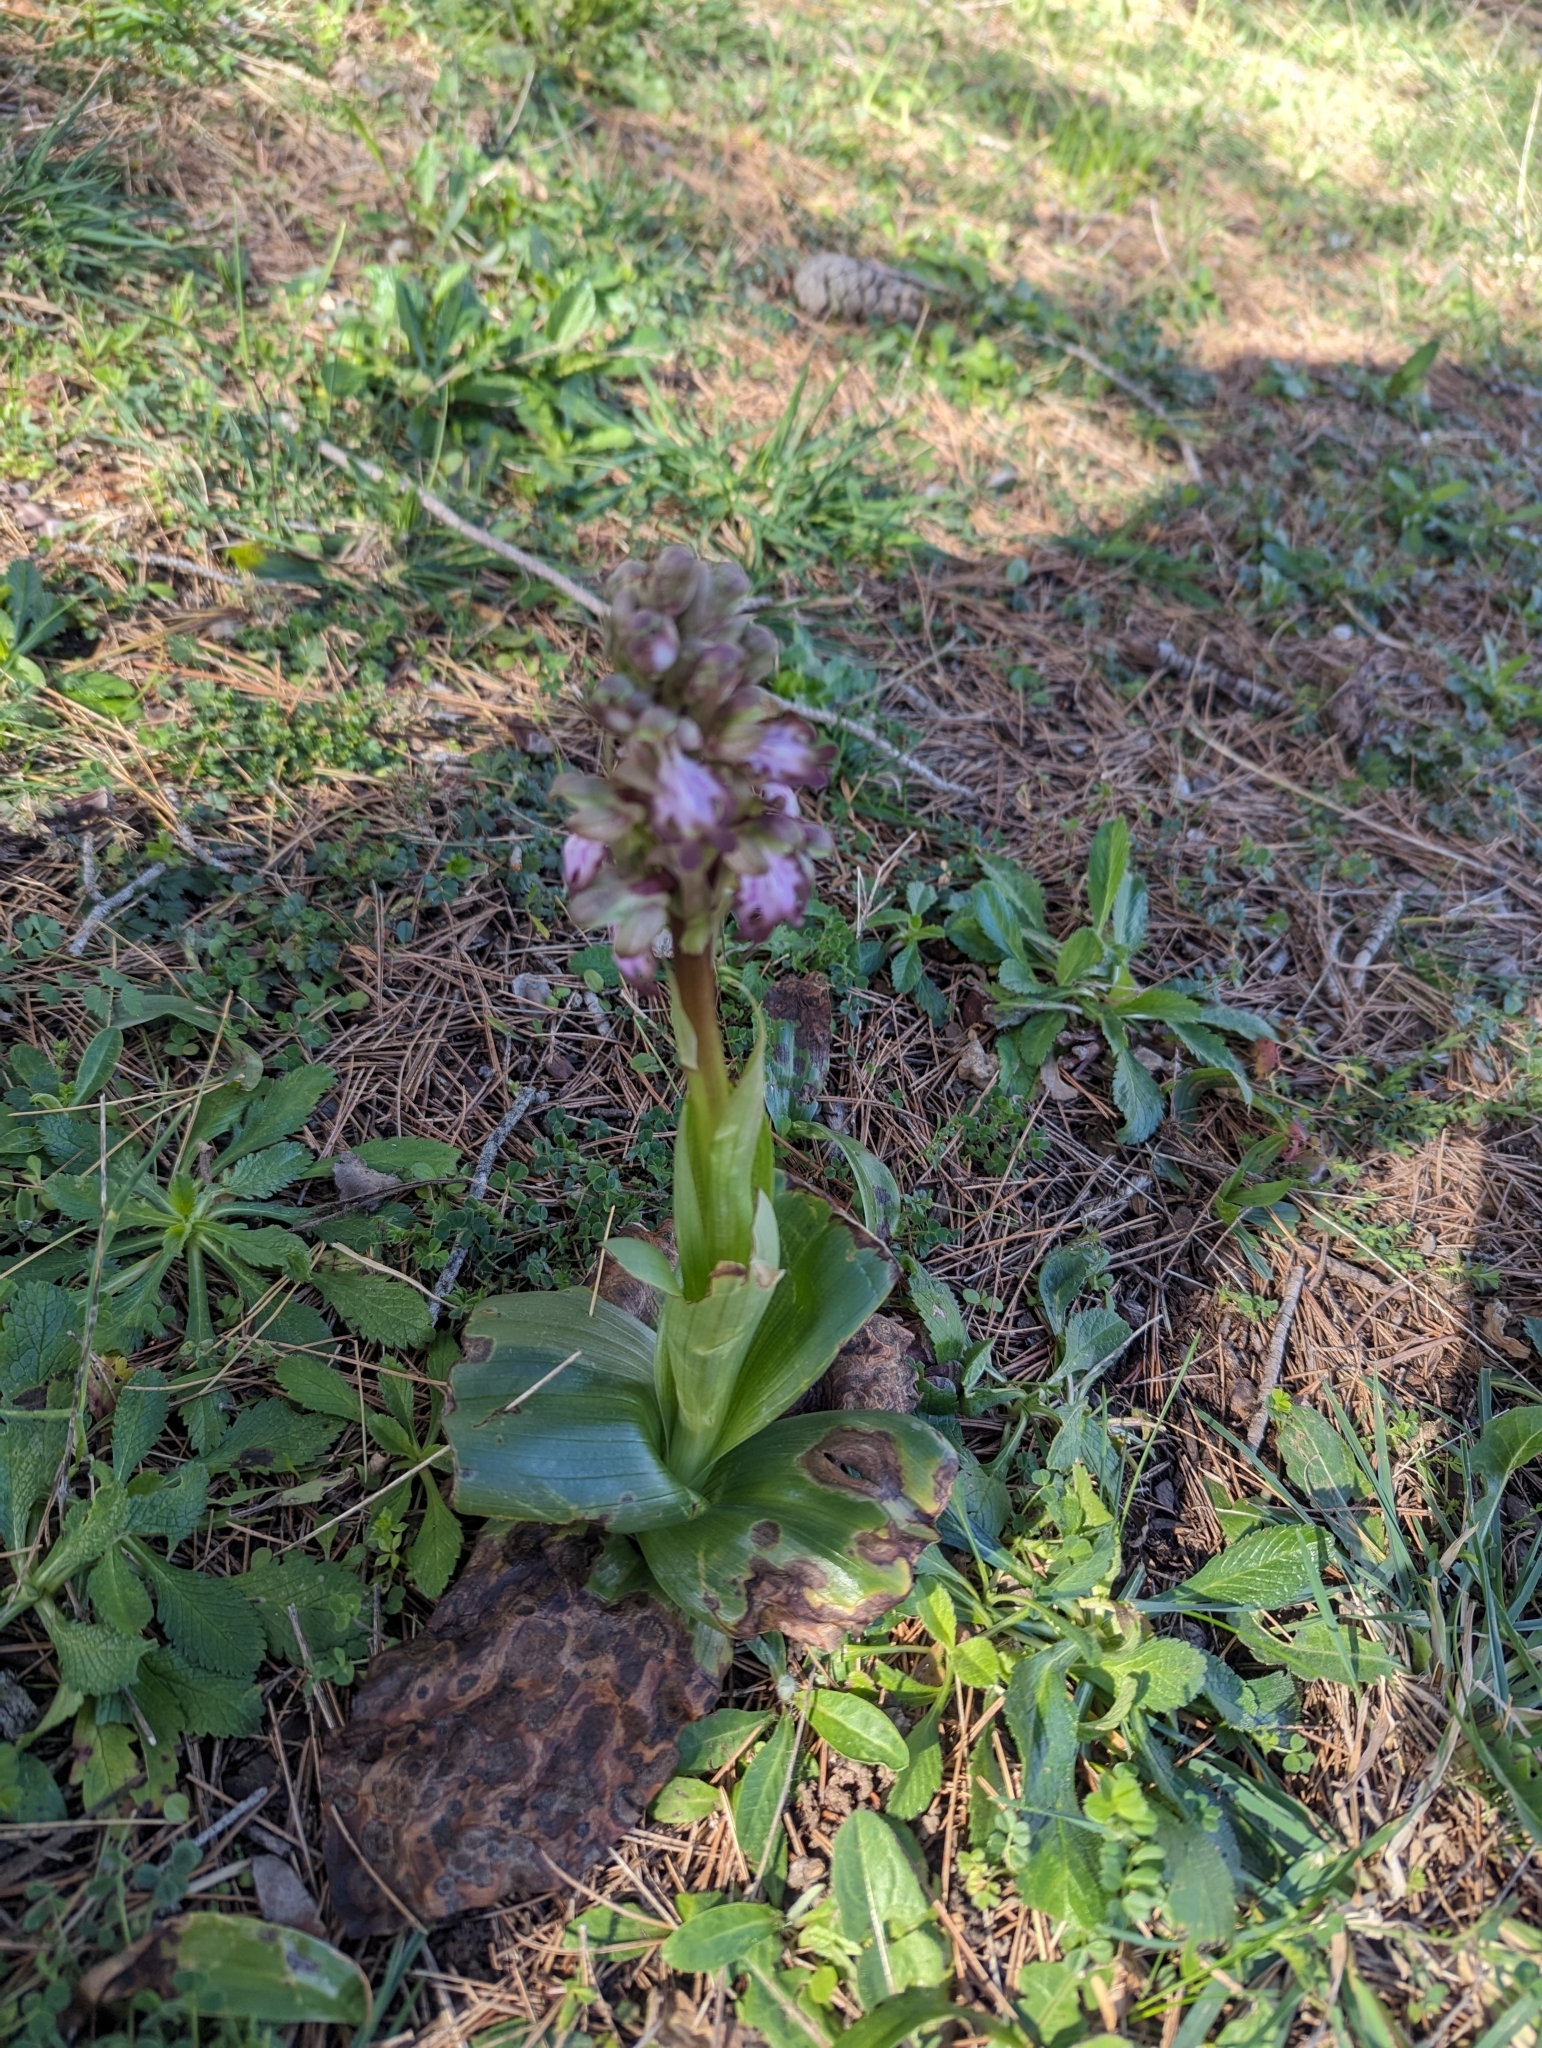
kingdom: Plantae
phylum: Tracheophyta
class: Liliopsida
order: Asparagales
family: Orchidaceae
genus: Himantoglossum
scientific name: Himantoglossum robertianum
